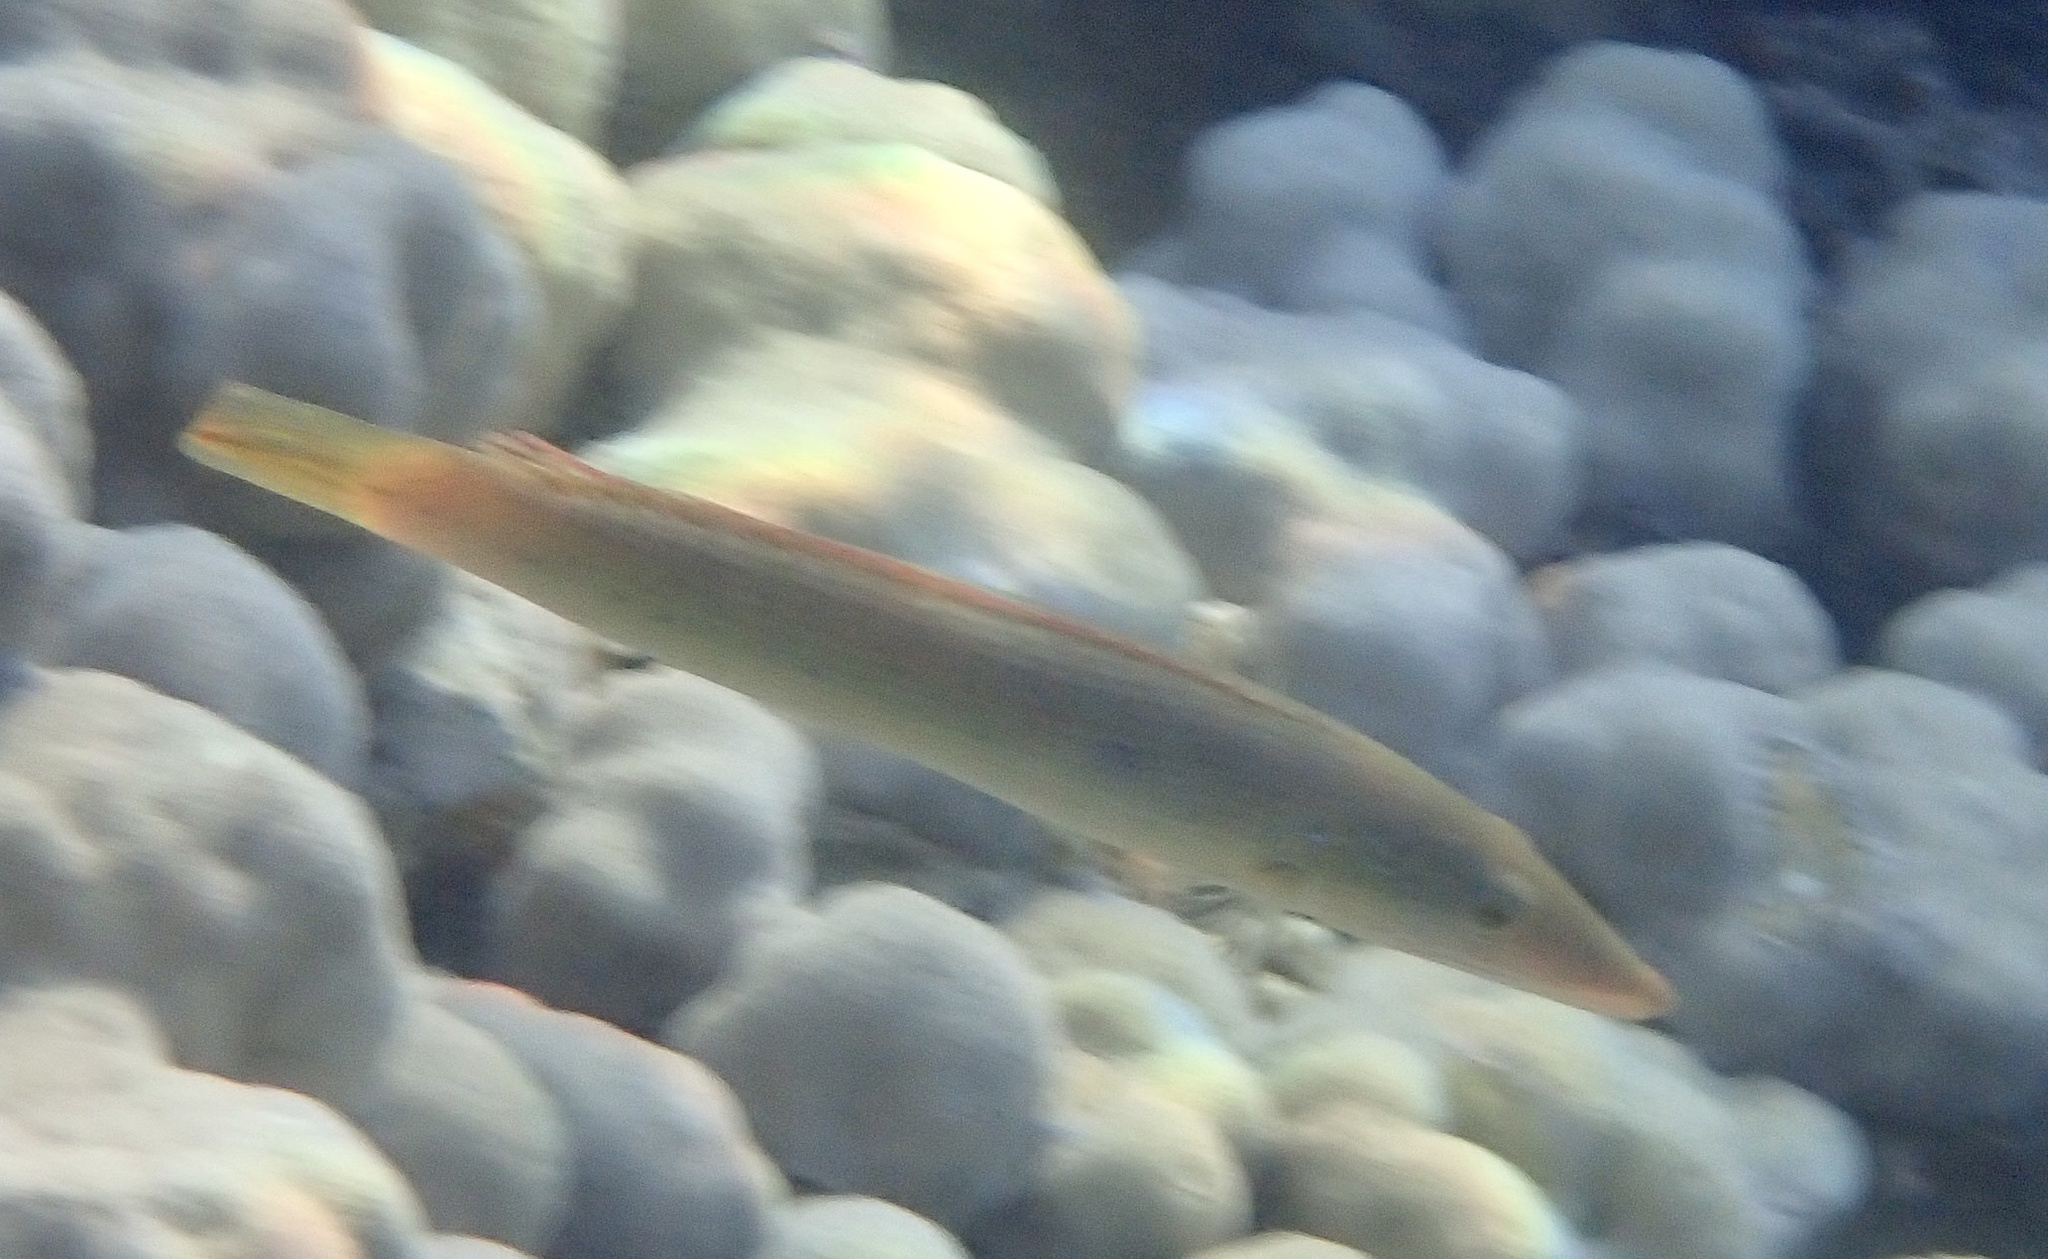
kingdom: Animalia
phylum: Chordata
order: Perciformes
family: Labridae
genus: Cheilio
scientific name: Cheilio inermis
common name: Cigar wrasse
